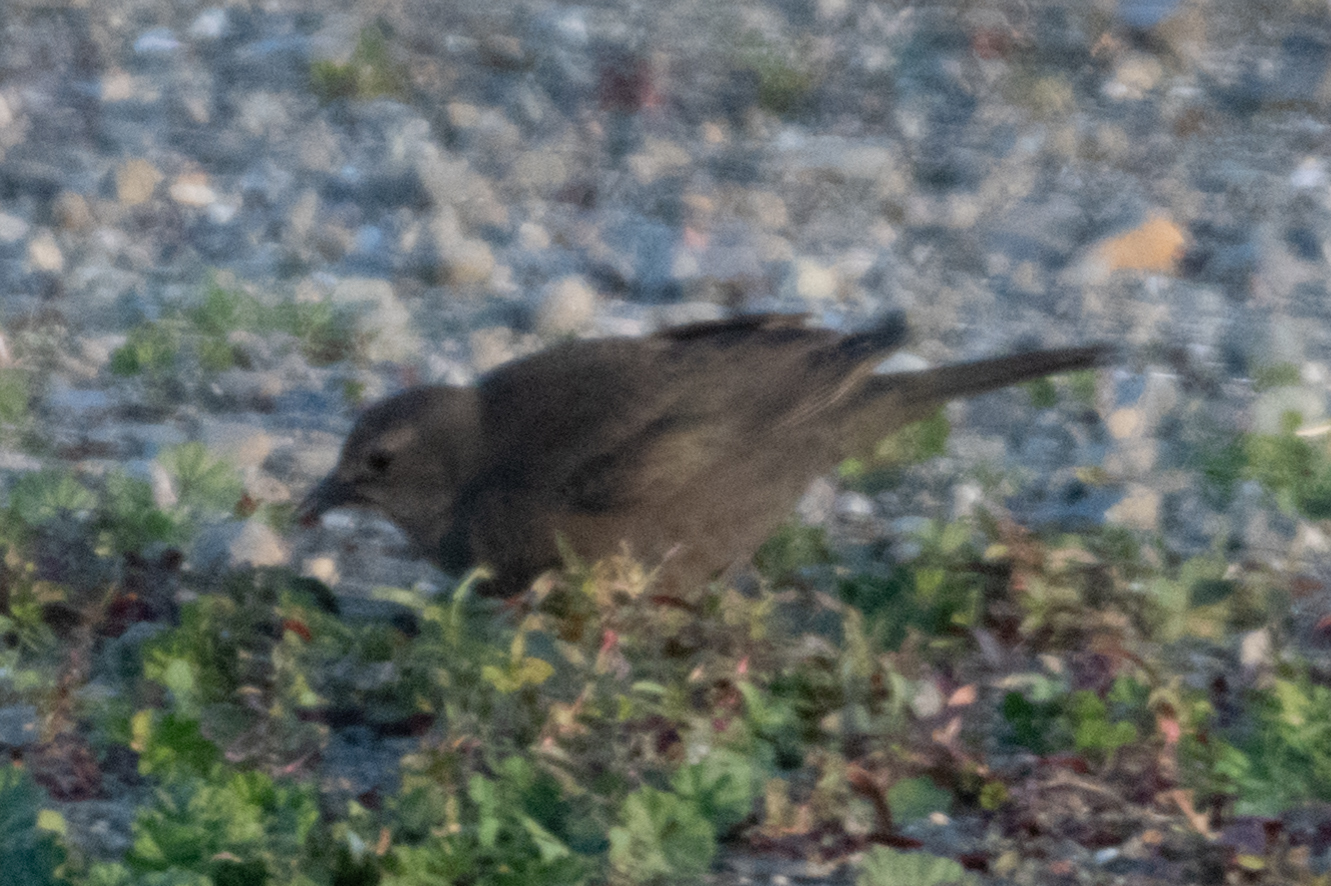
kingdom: Animalia
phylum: Chordata
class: Aves
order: Passeriformes
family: Icteridae
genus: Euphagus
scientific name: Euphagus cyanocephalus
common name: Brewer's blackbird
